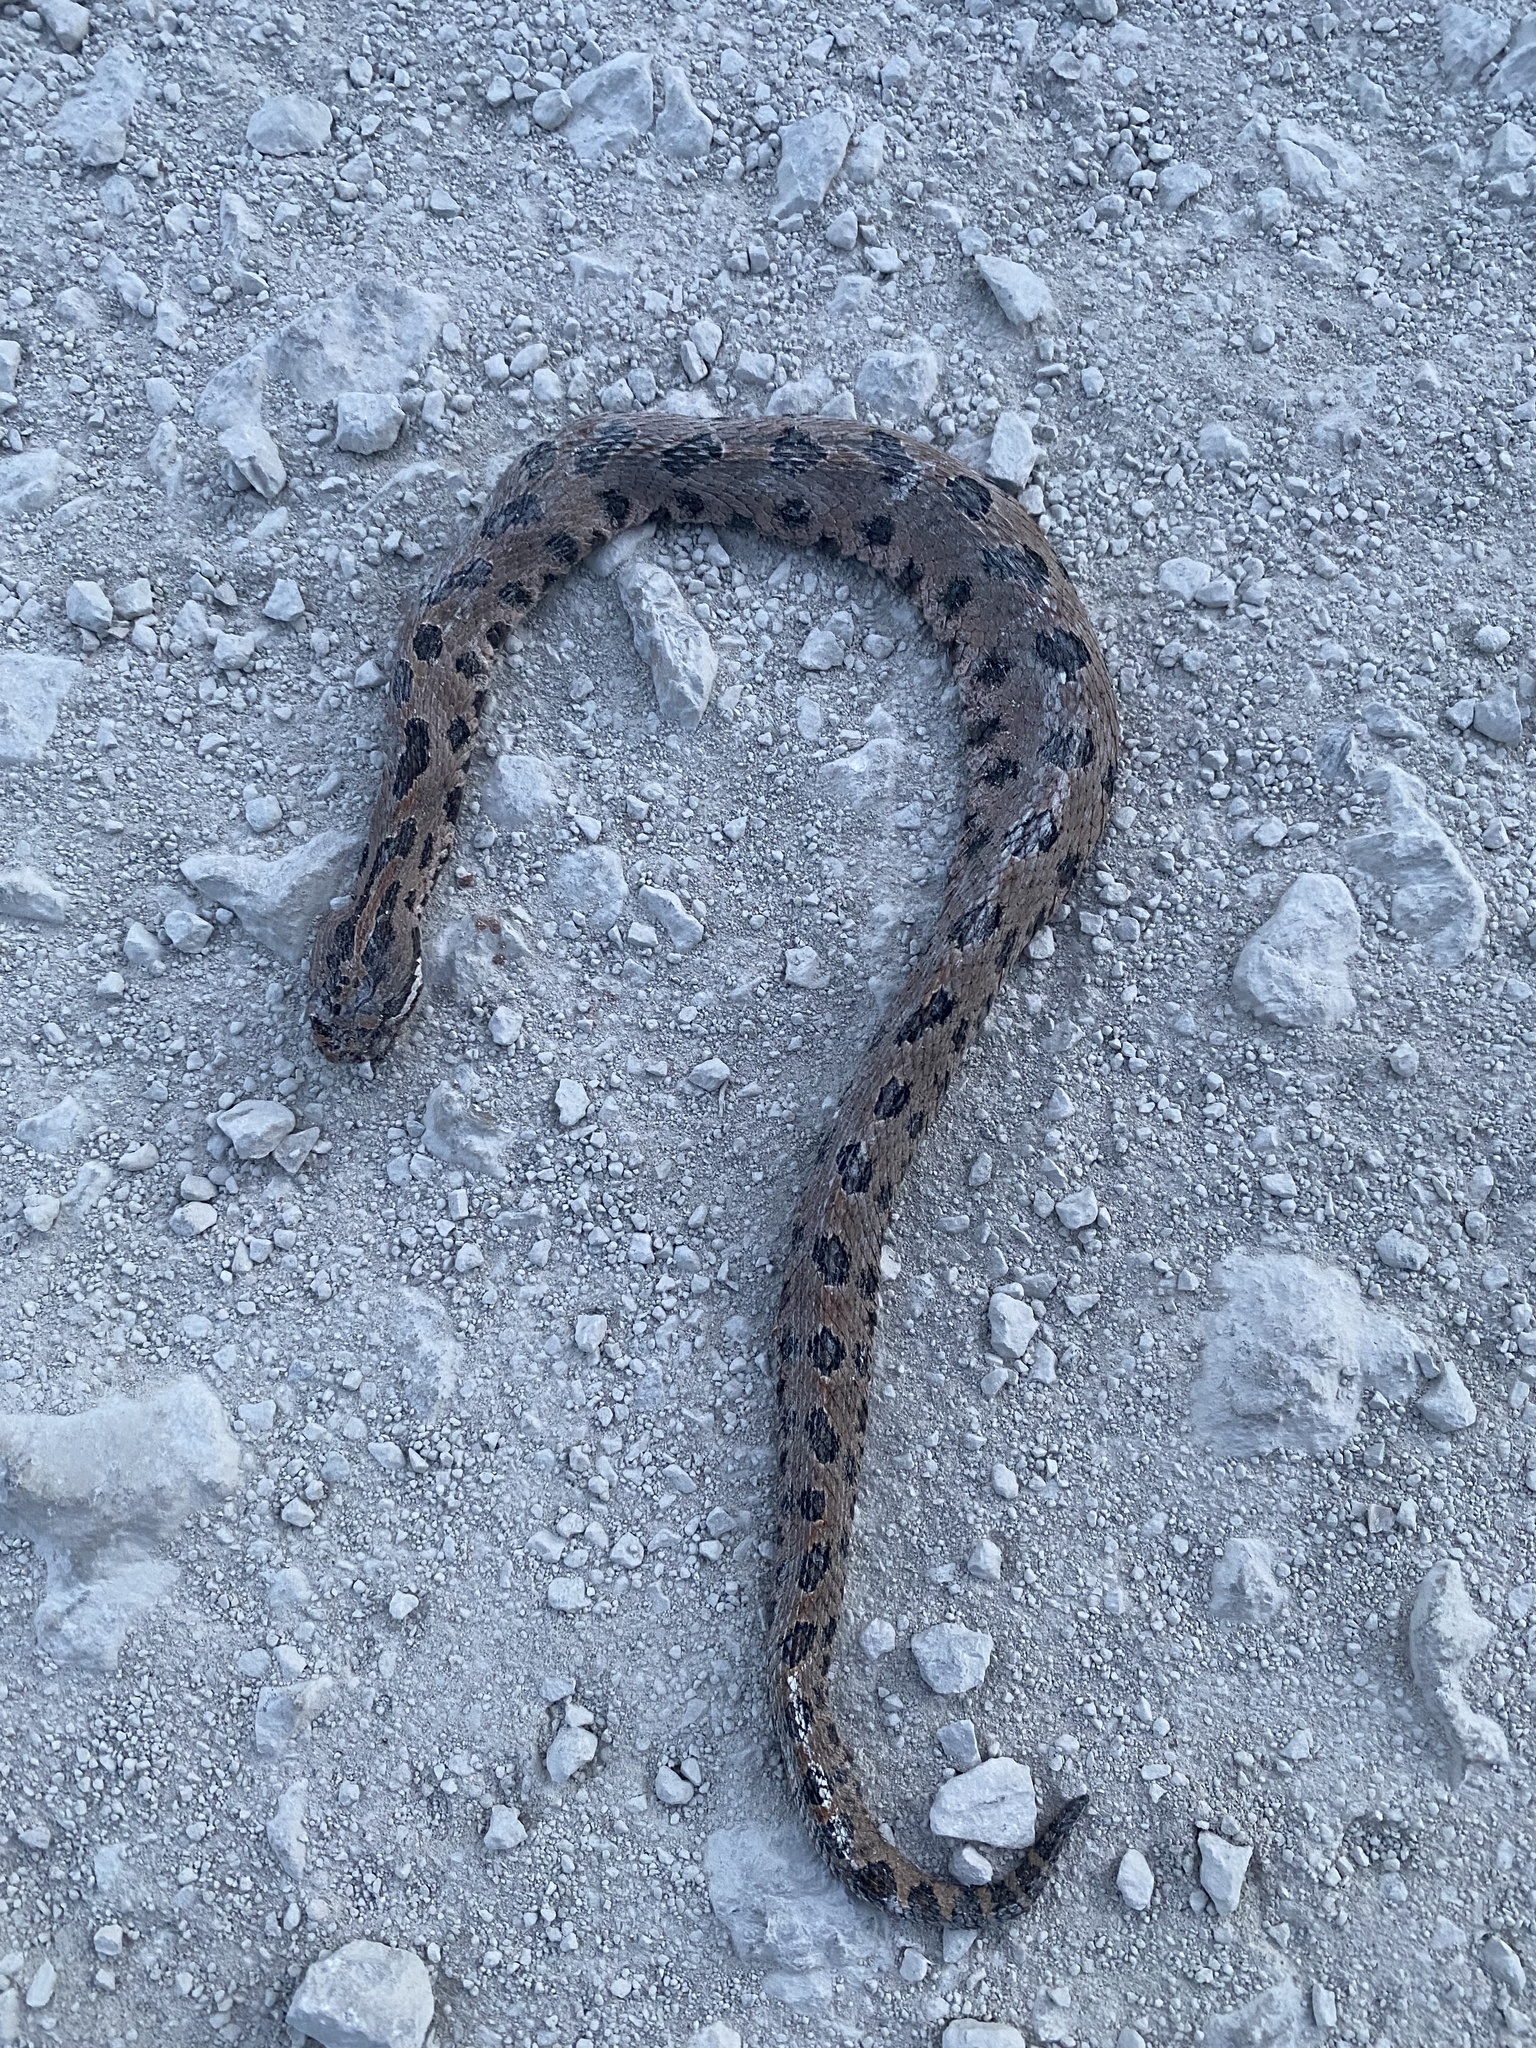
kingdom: Animalia
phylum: Chordata
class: Squamata
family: Viperidae
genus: Sistrurus
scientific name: Sistrurus miliarius
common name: Pygmy rattlesnake
